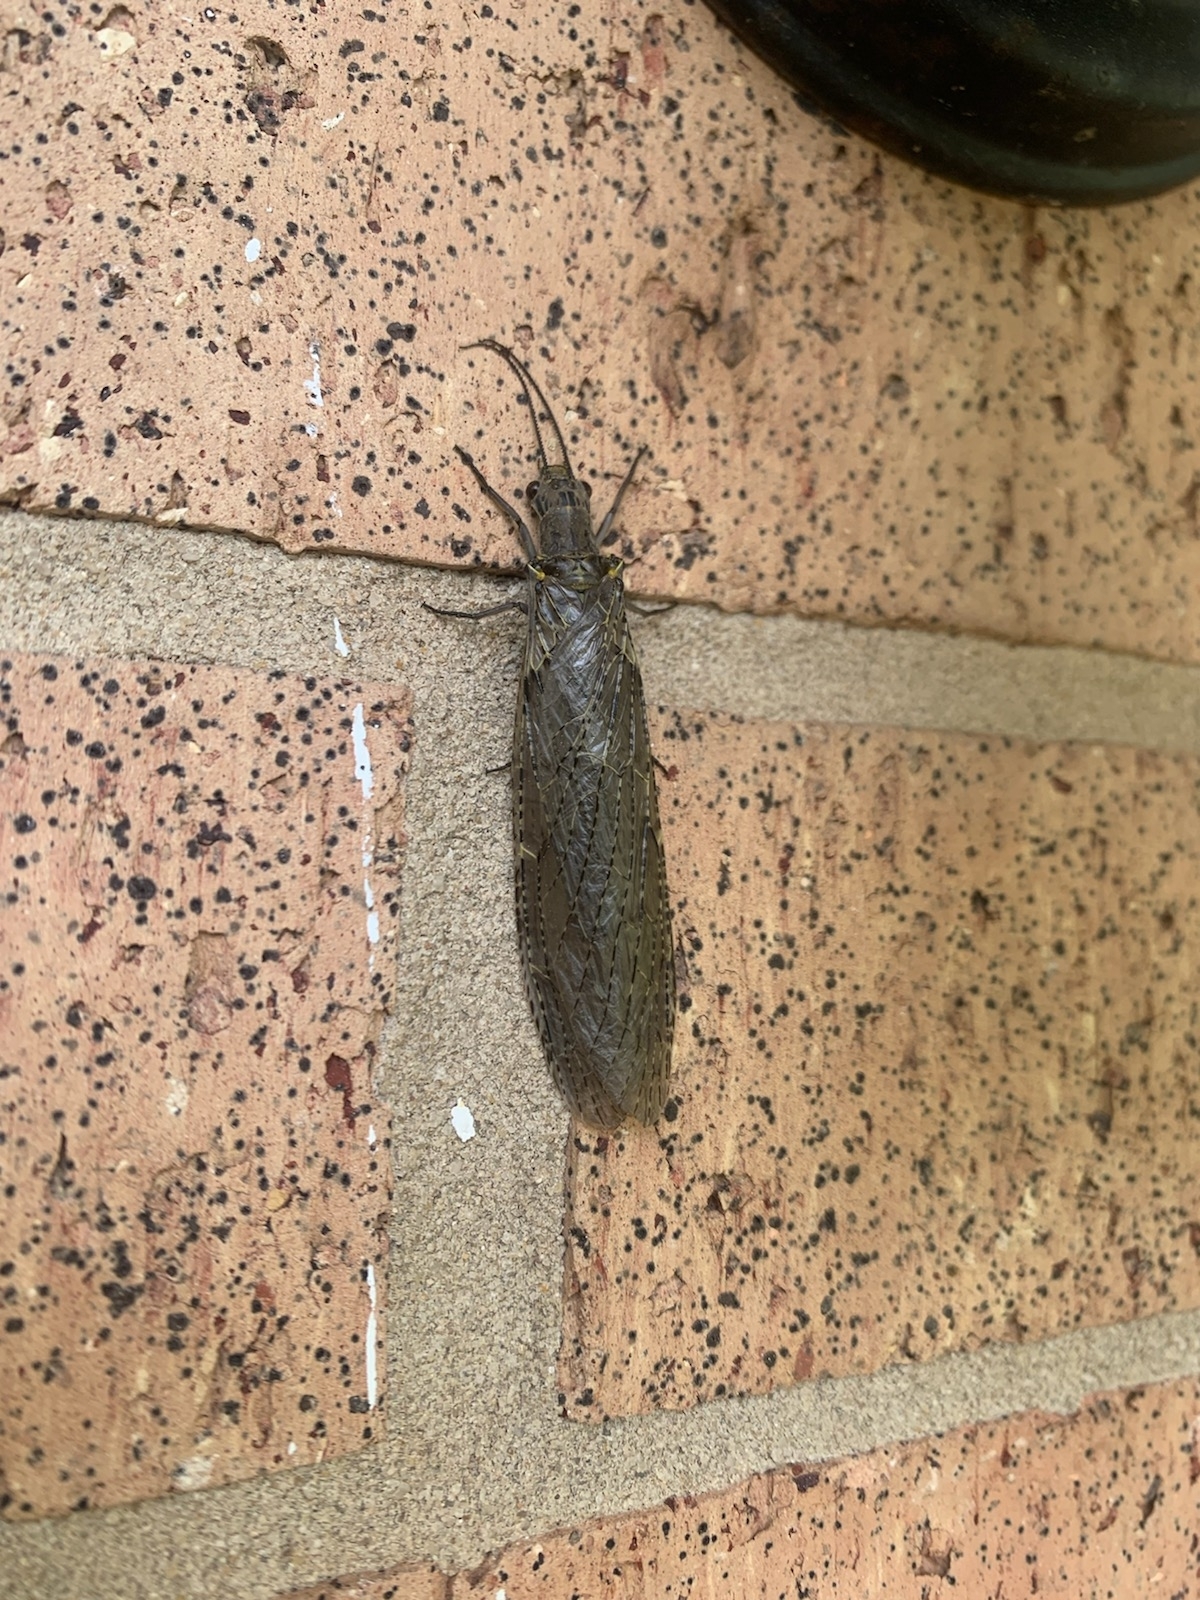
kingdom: Animalia
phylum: Arthropoda
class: Insecta
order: Megaloptera
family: Corydalidae
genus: Chauliodes
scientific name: Chauliodes rastricornis
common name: Spring fishfly
